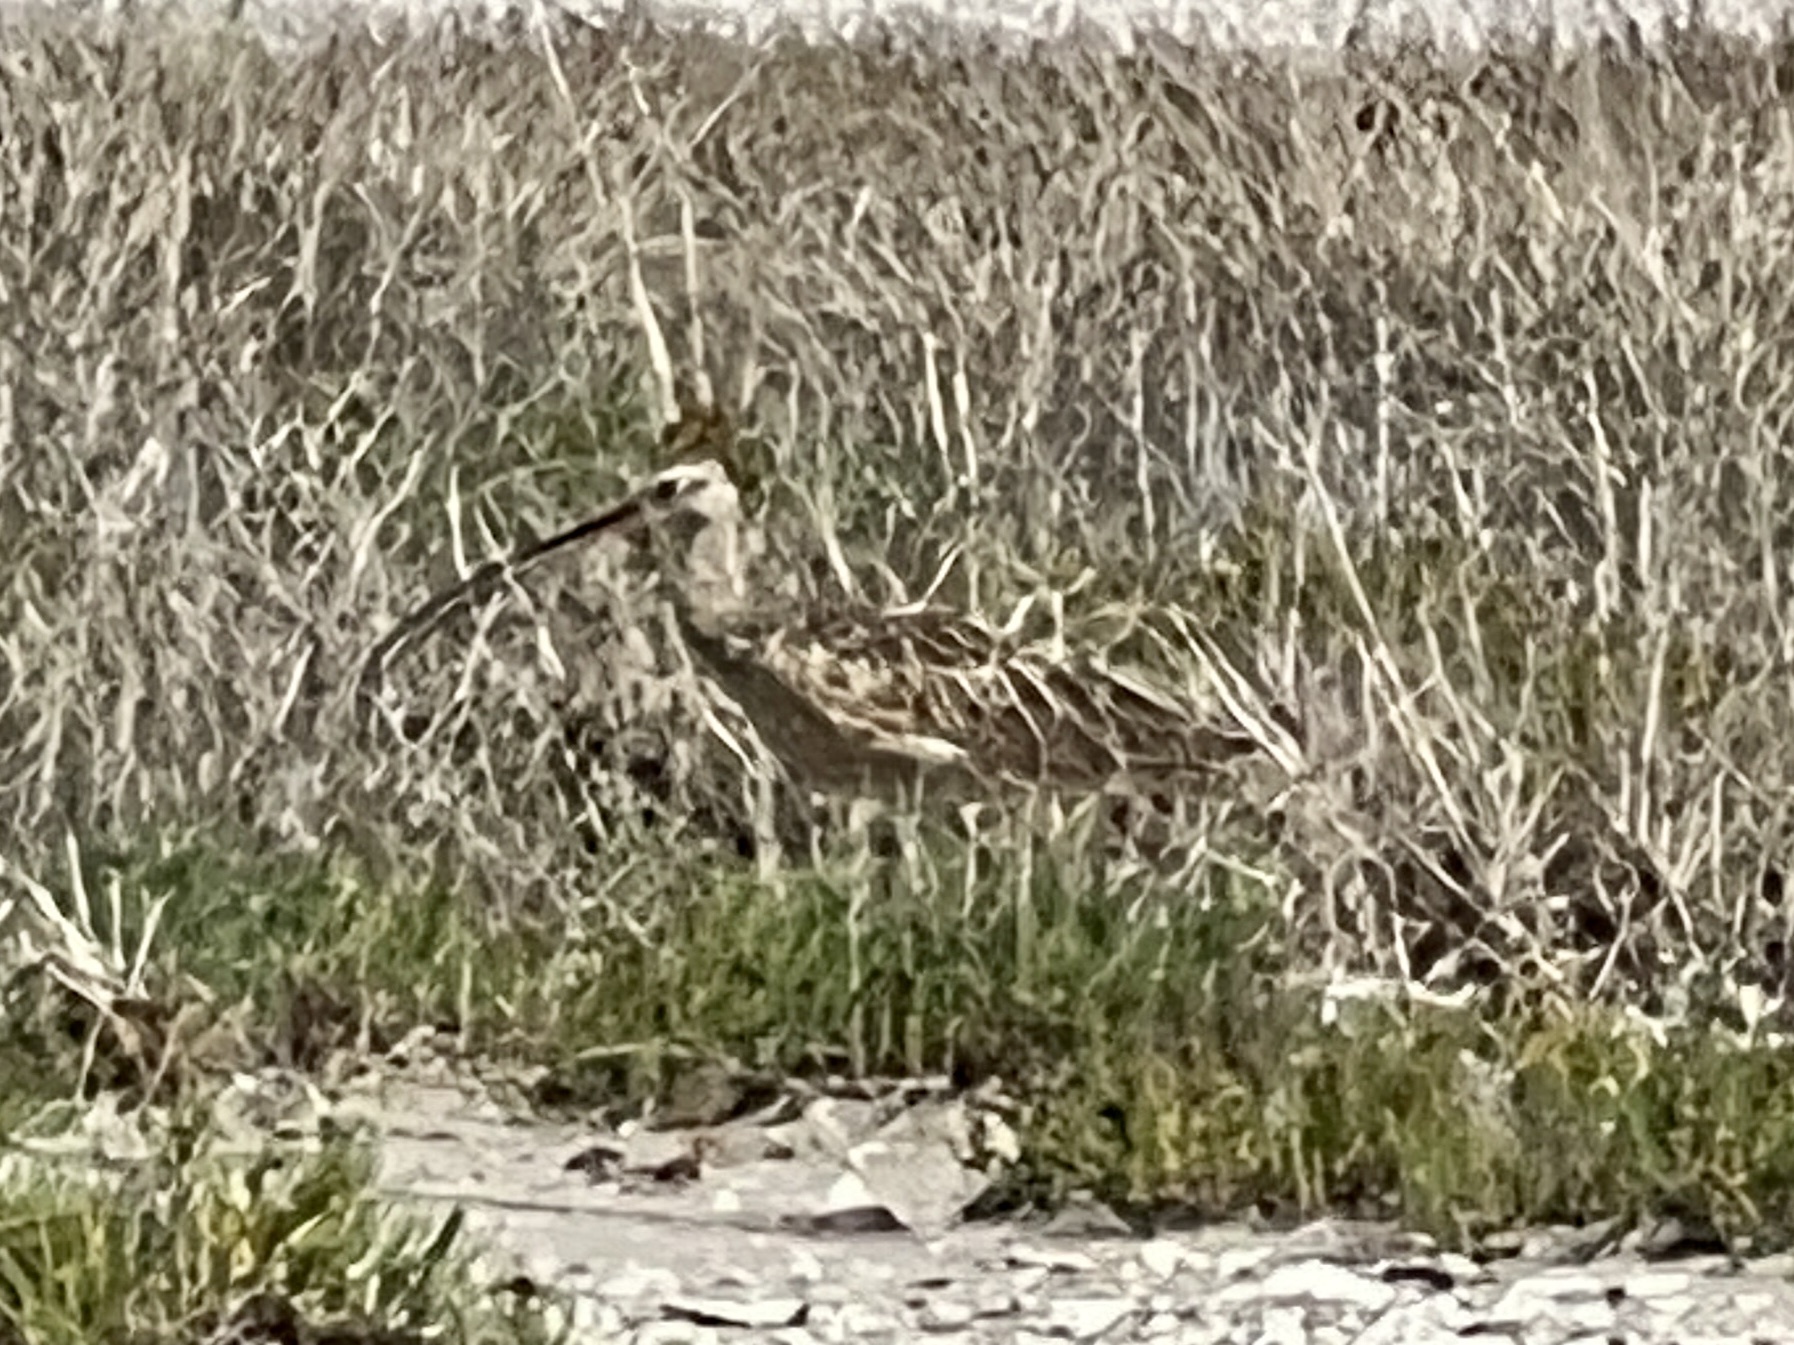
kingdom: Animalia
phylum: Chordata
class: Aves
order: Charadriiformes
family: Scolopacidae
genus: Numenius
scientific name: Numenius americanus
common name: Long-billed curlew
